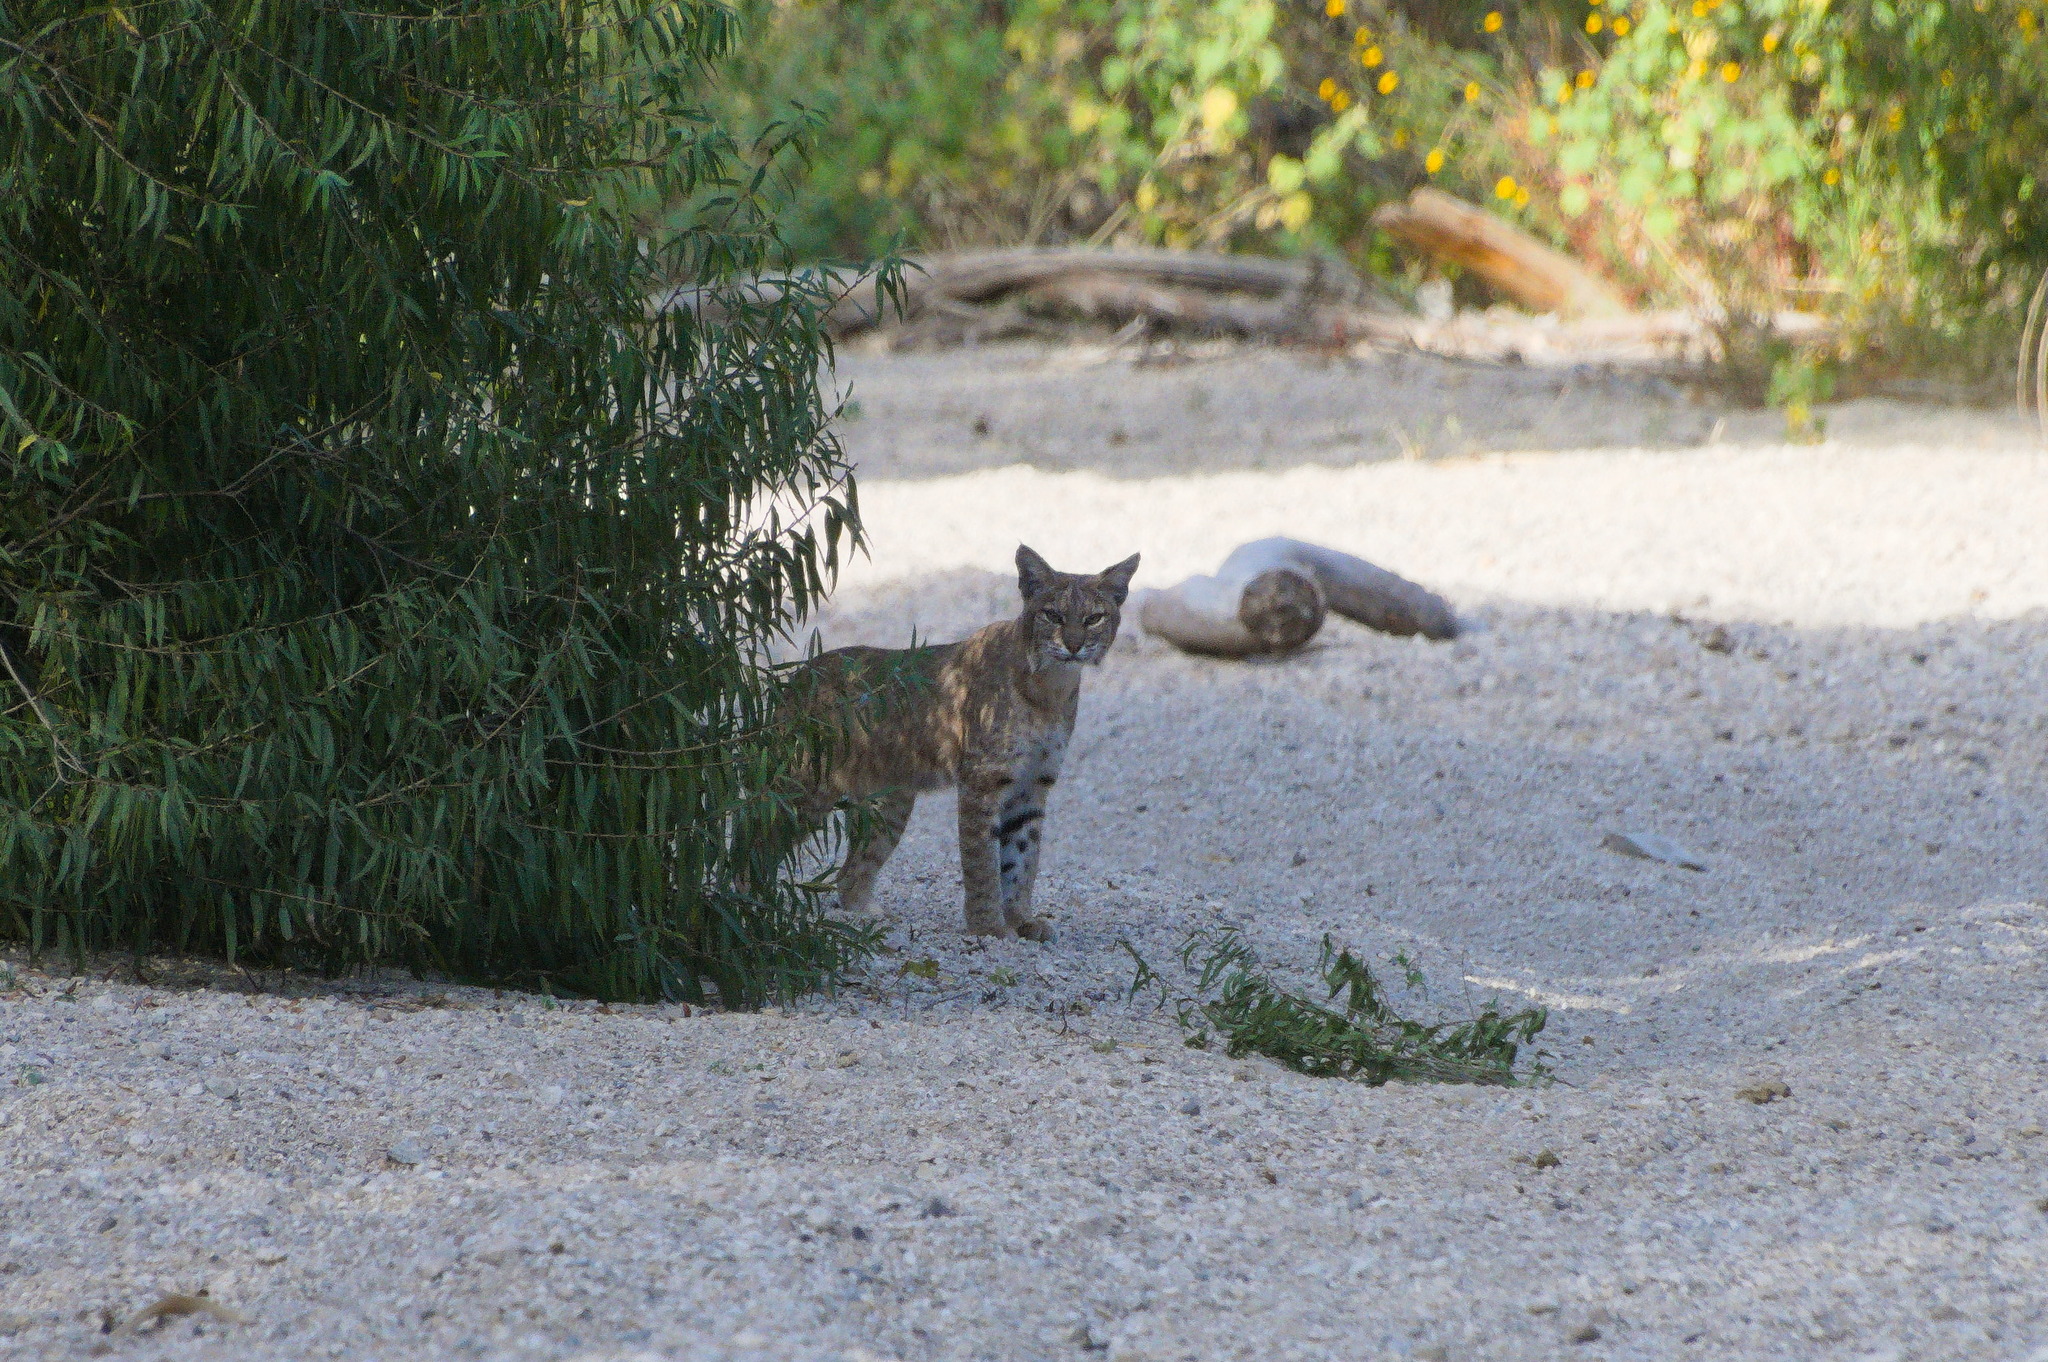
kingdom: Animalia
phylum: Chordata
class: Mammalia
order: Carnivora
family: Felidae
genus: Lynx
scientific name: Lynx rufus
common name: Bobcat
